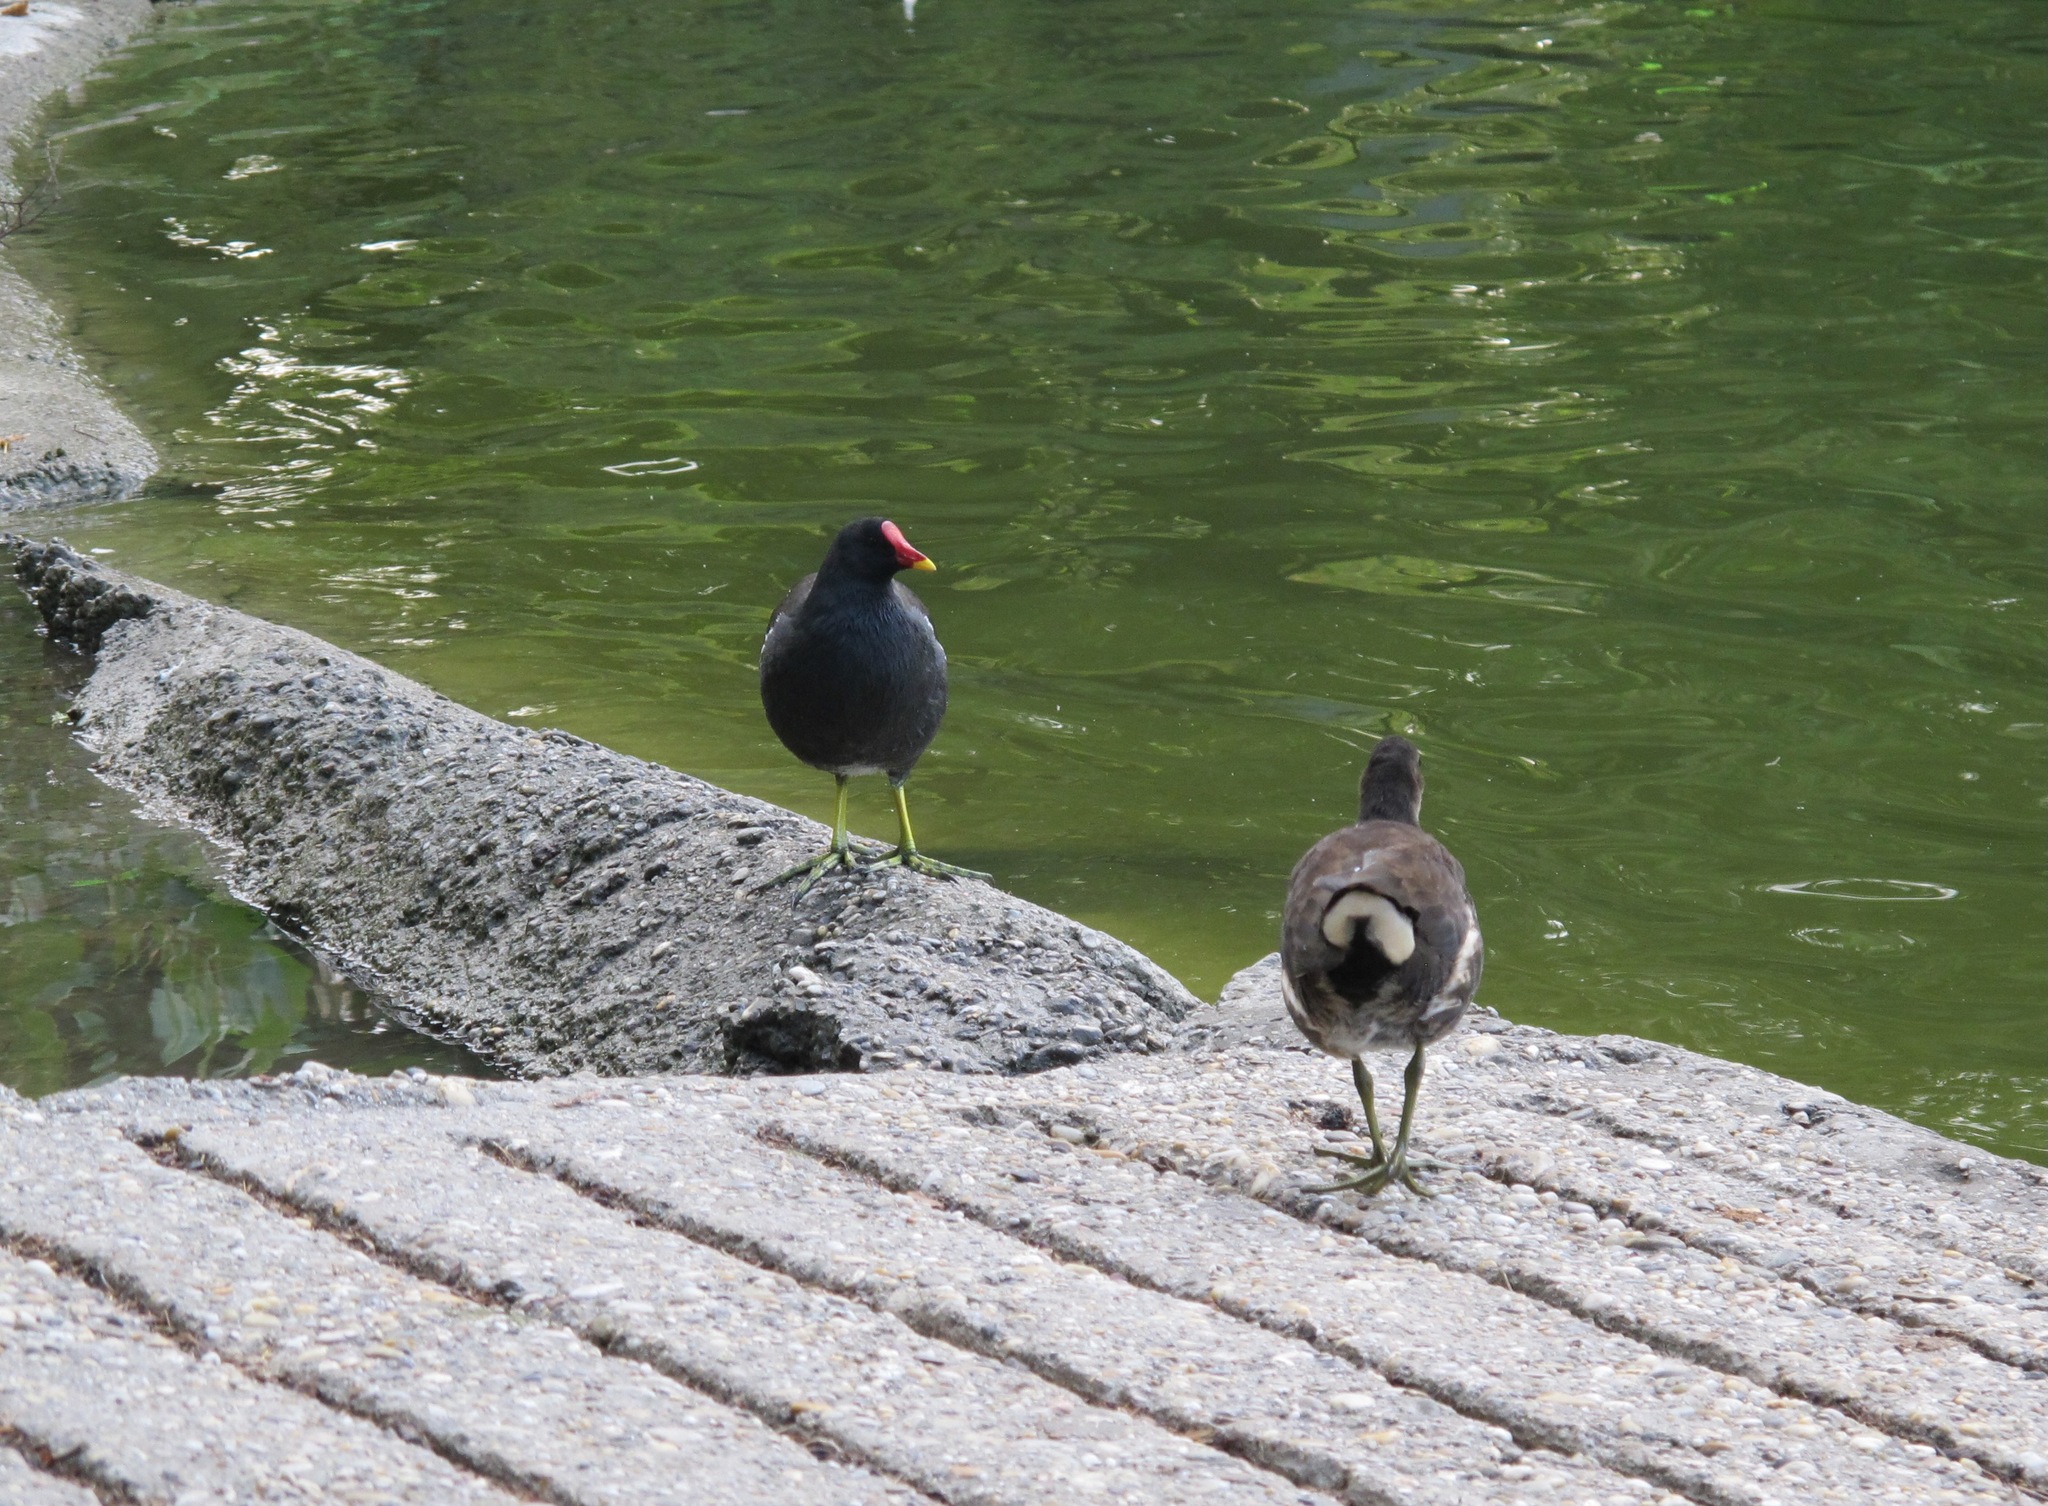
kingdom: Animalia
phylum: Chordata
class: Aves
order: Gruiformes
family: Rallidae
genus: Gallinula
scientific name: Gallinula chloropus
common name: Common moorhen
